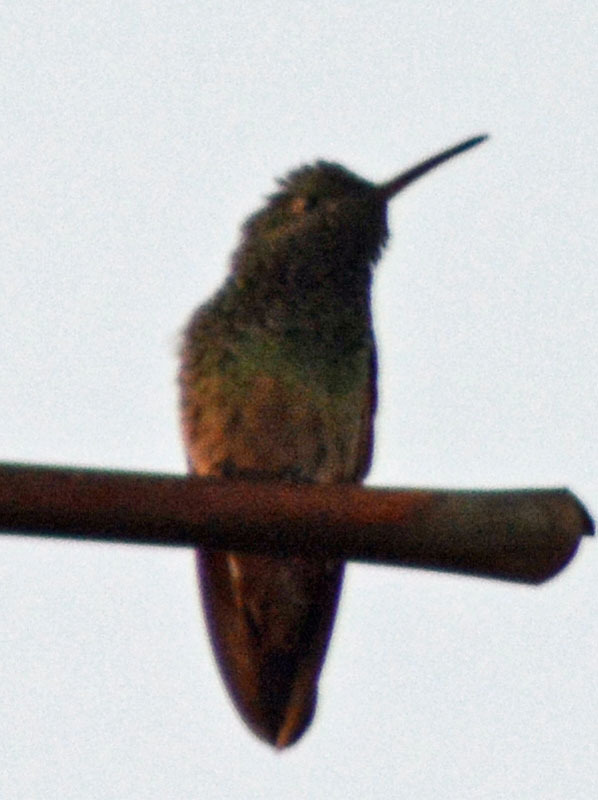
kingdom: Animalia
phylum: Chordata
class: Aves
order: Apodiformes
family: Trochilidae
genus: Saucerottia
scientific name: Saucerottia beryllina
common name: Berylline hummingbird
